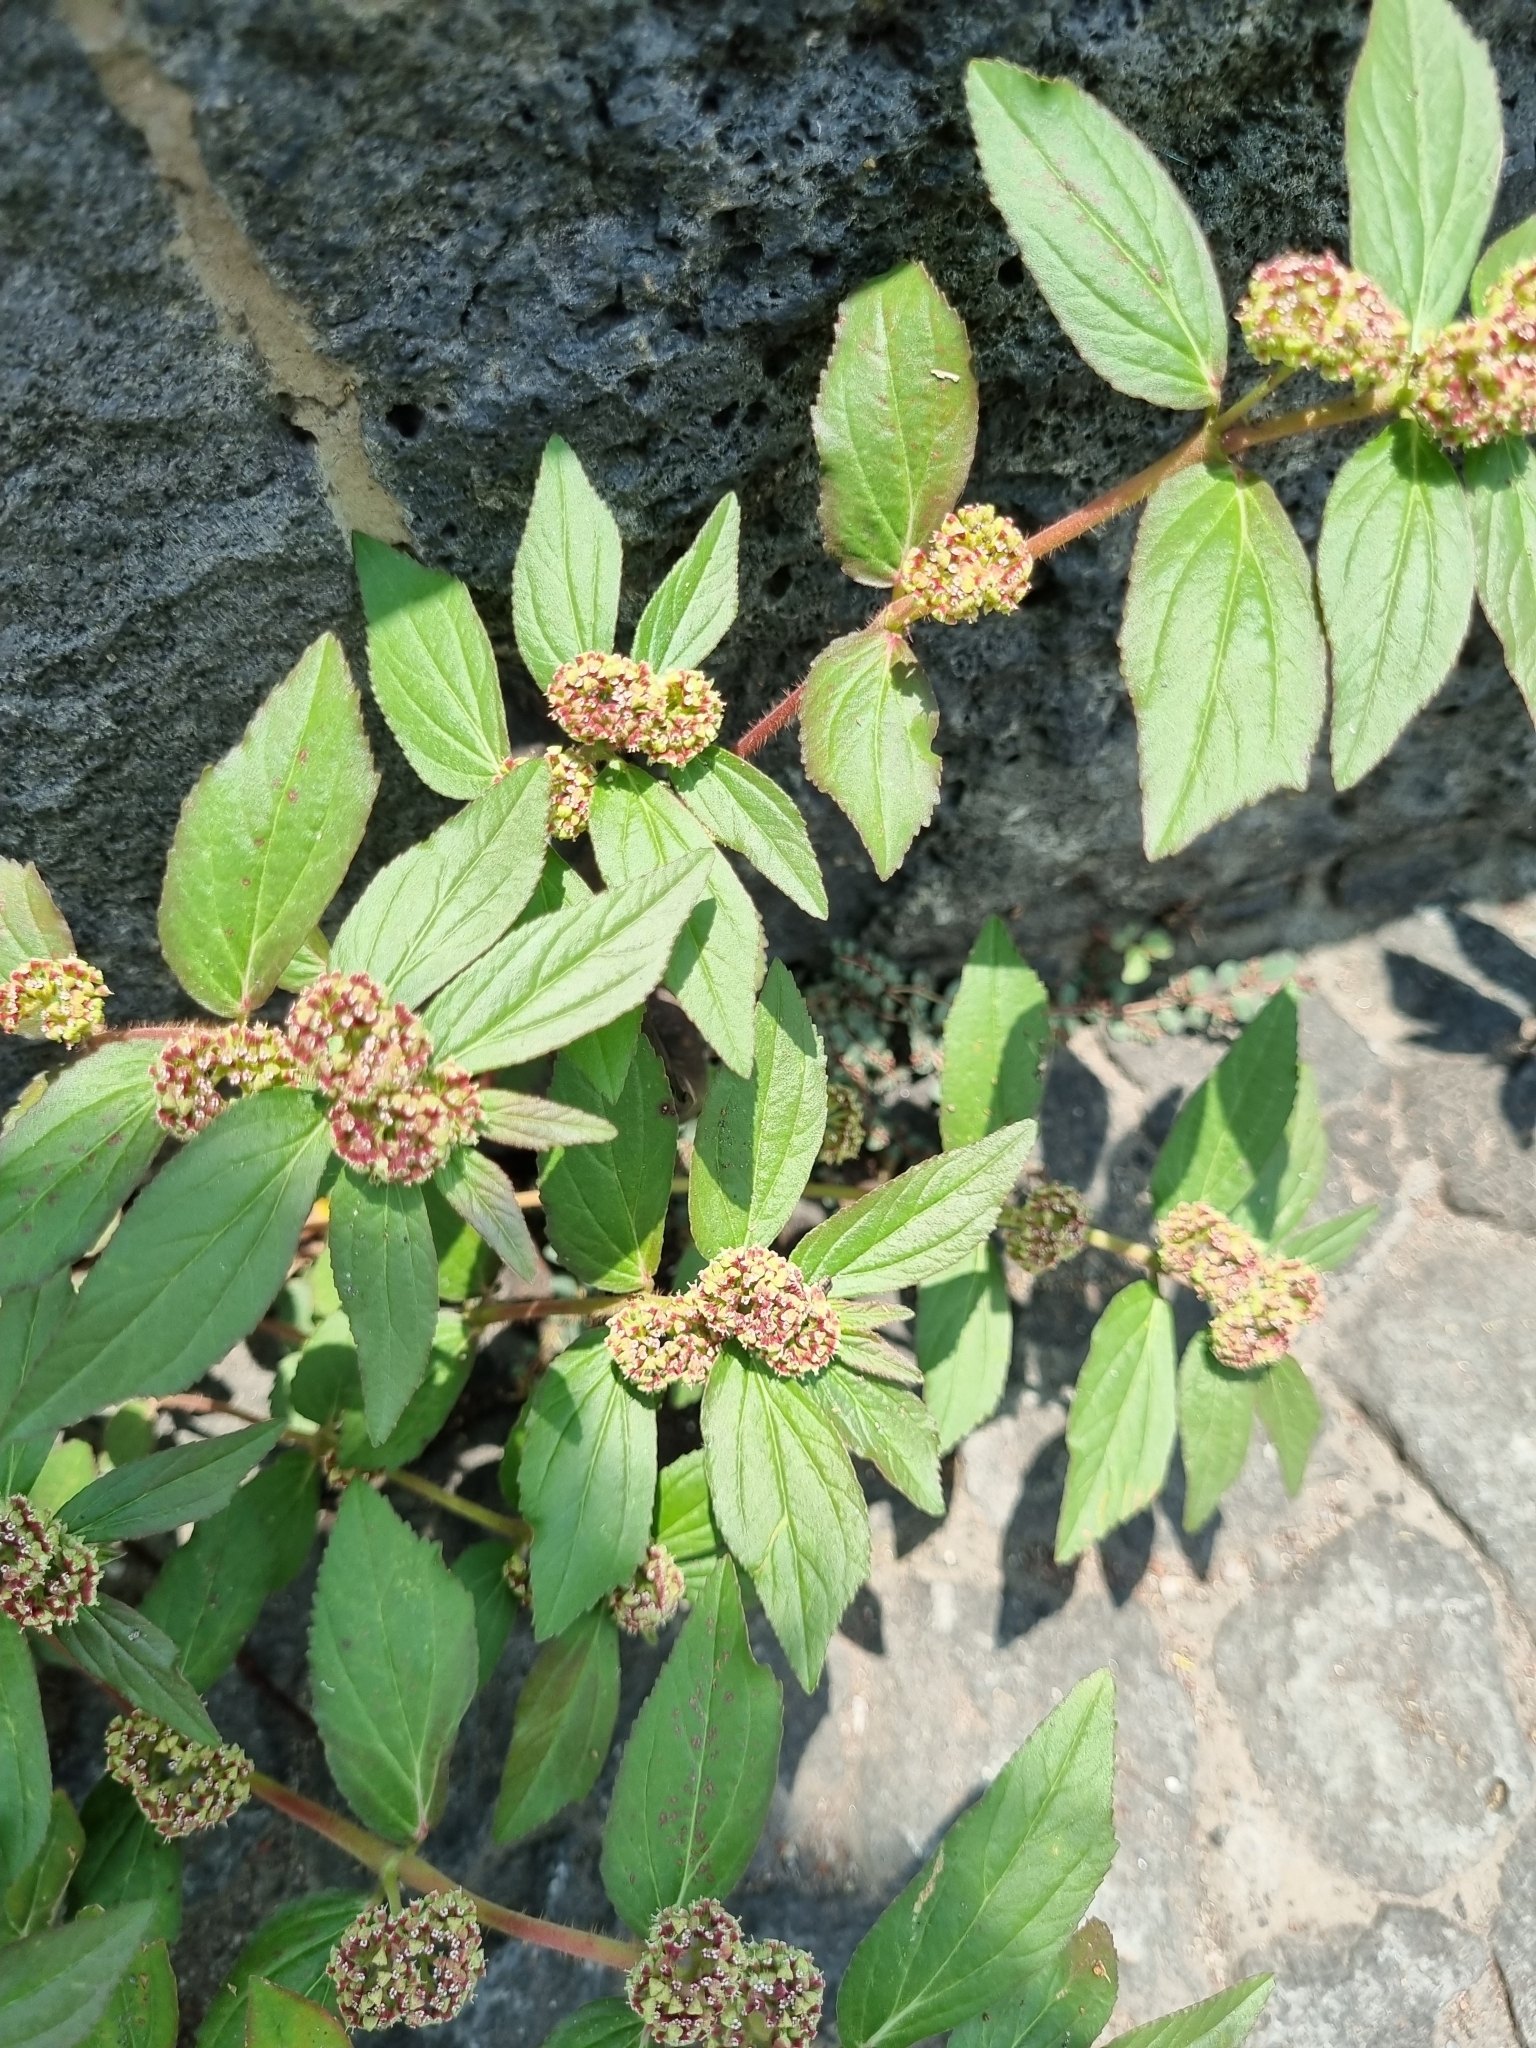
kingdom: Plantae
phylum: Tracheophyta
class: Magnoliopsida
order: Malpighiales
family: Euphorbiaceae
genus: Euphorbia
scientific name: Euphorbia hirta
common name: Pillpod sandmat
